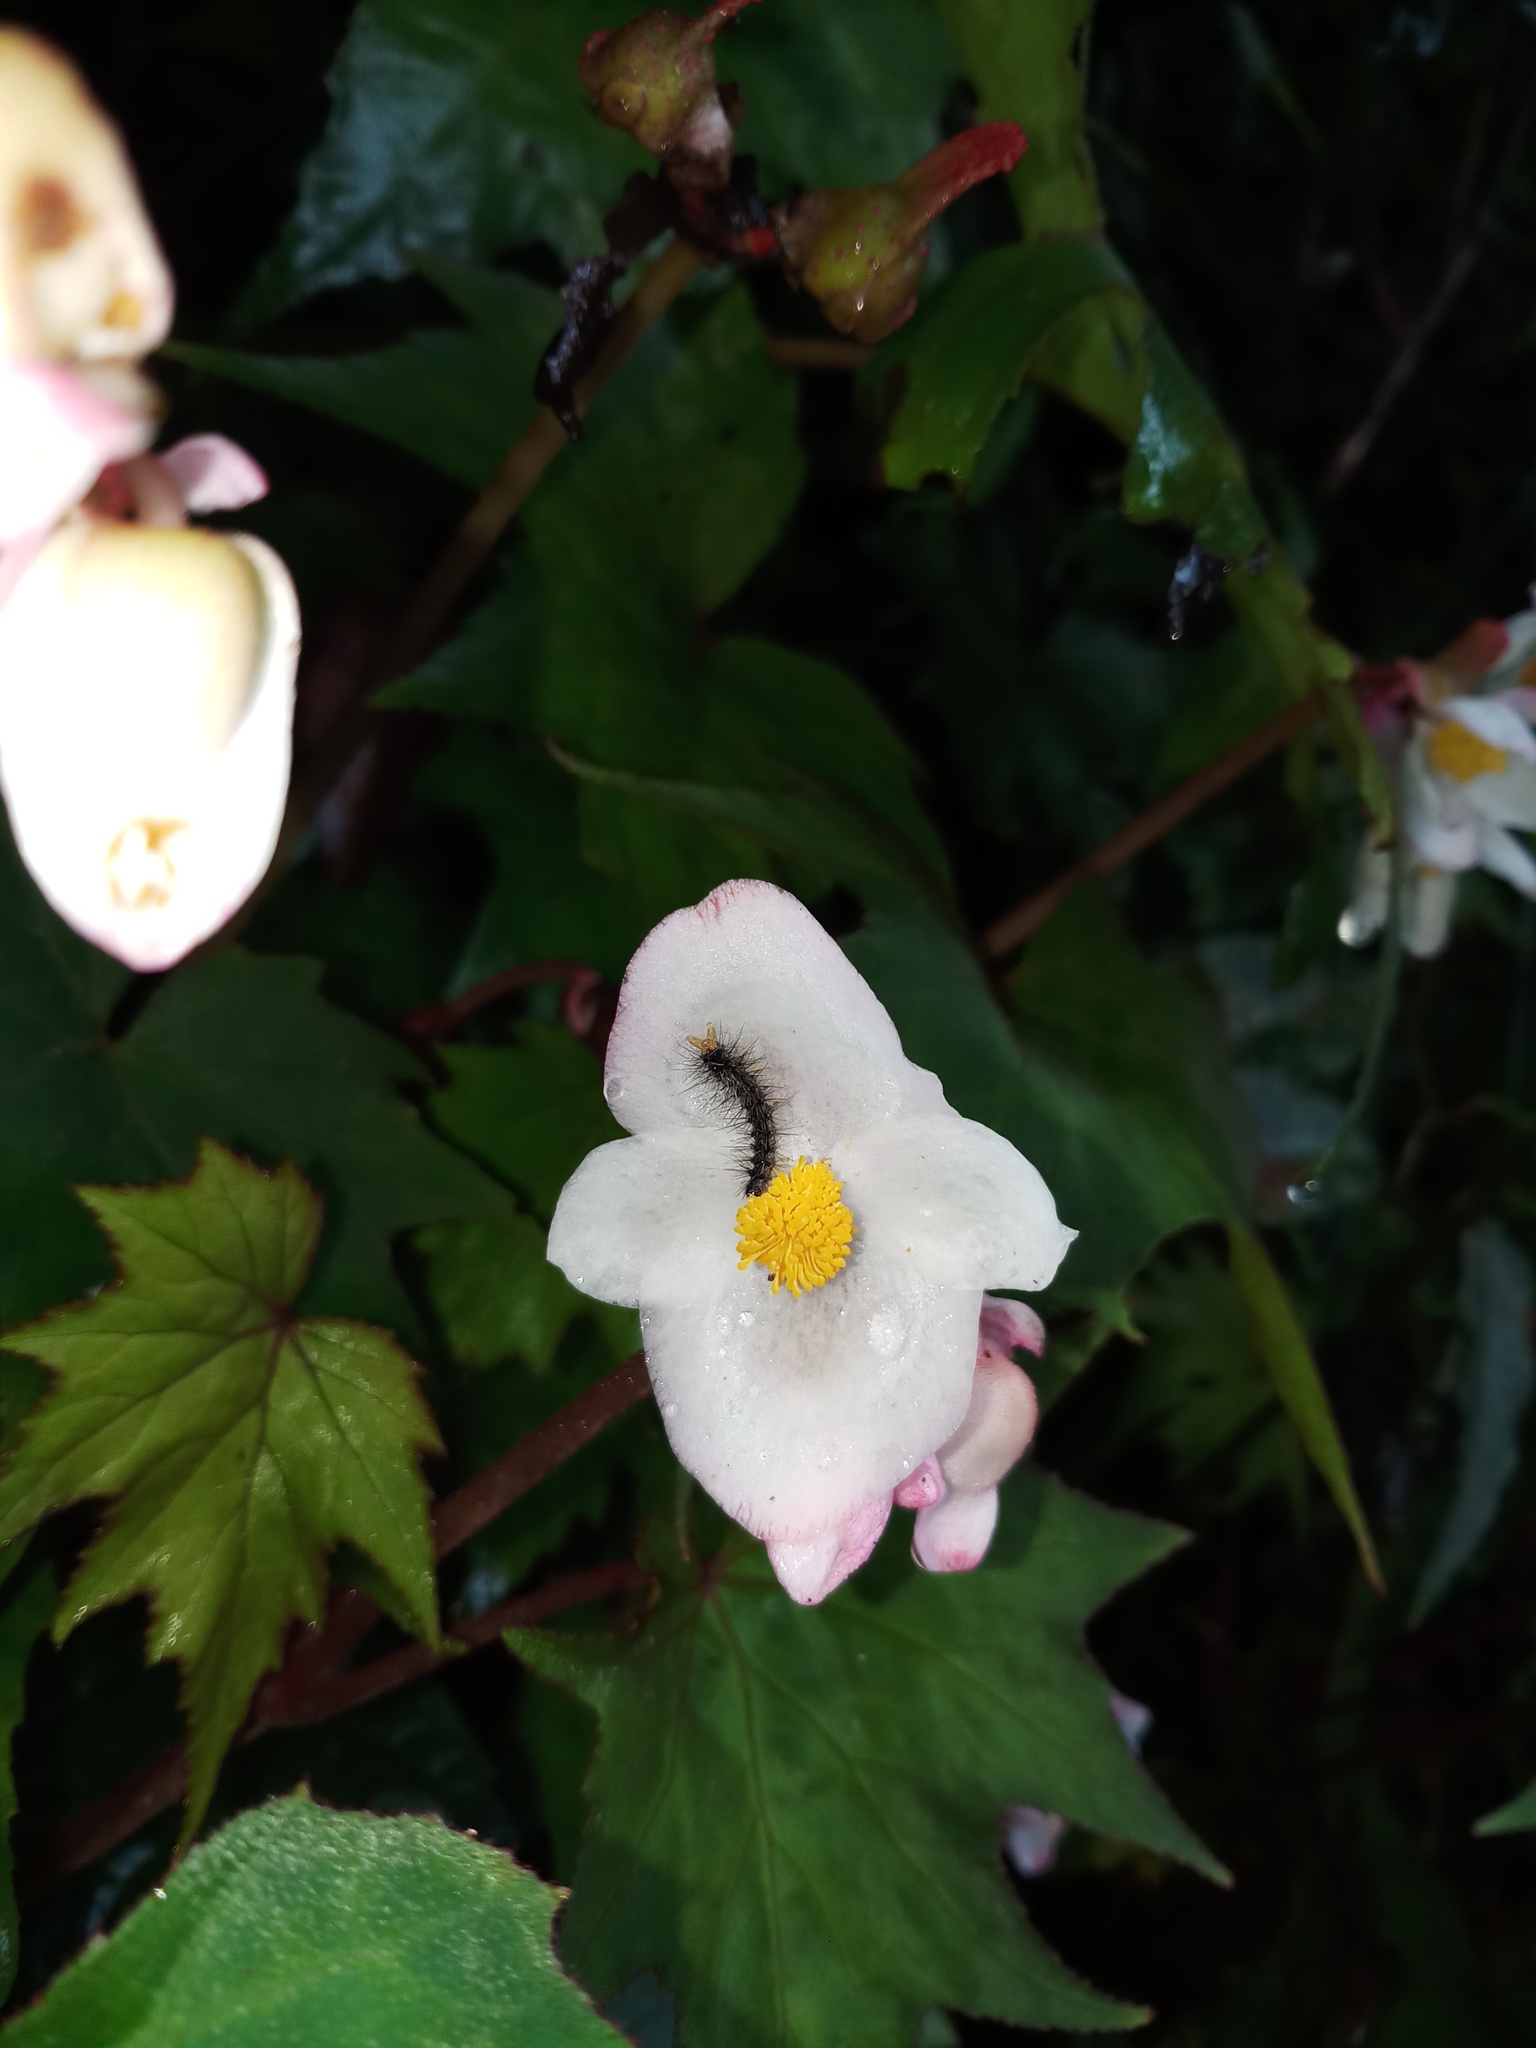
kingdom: Plantae
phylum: Tracheophyta
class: Magnoliopsida
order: Cucurbitales
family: Begoniaceae
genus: Begonia
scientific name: Begonia palmata
